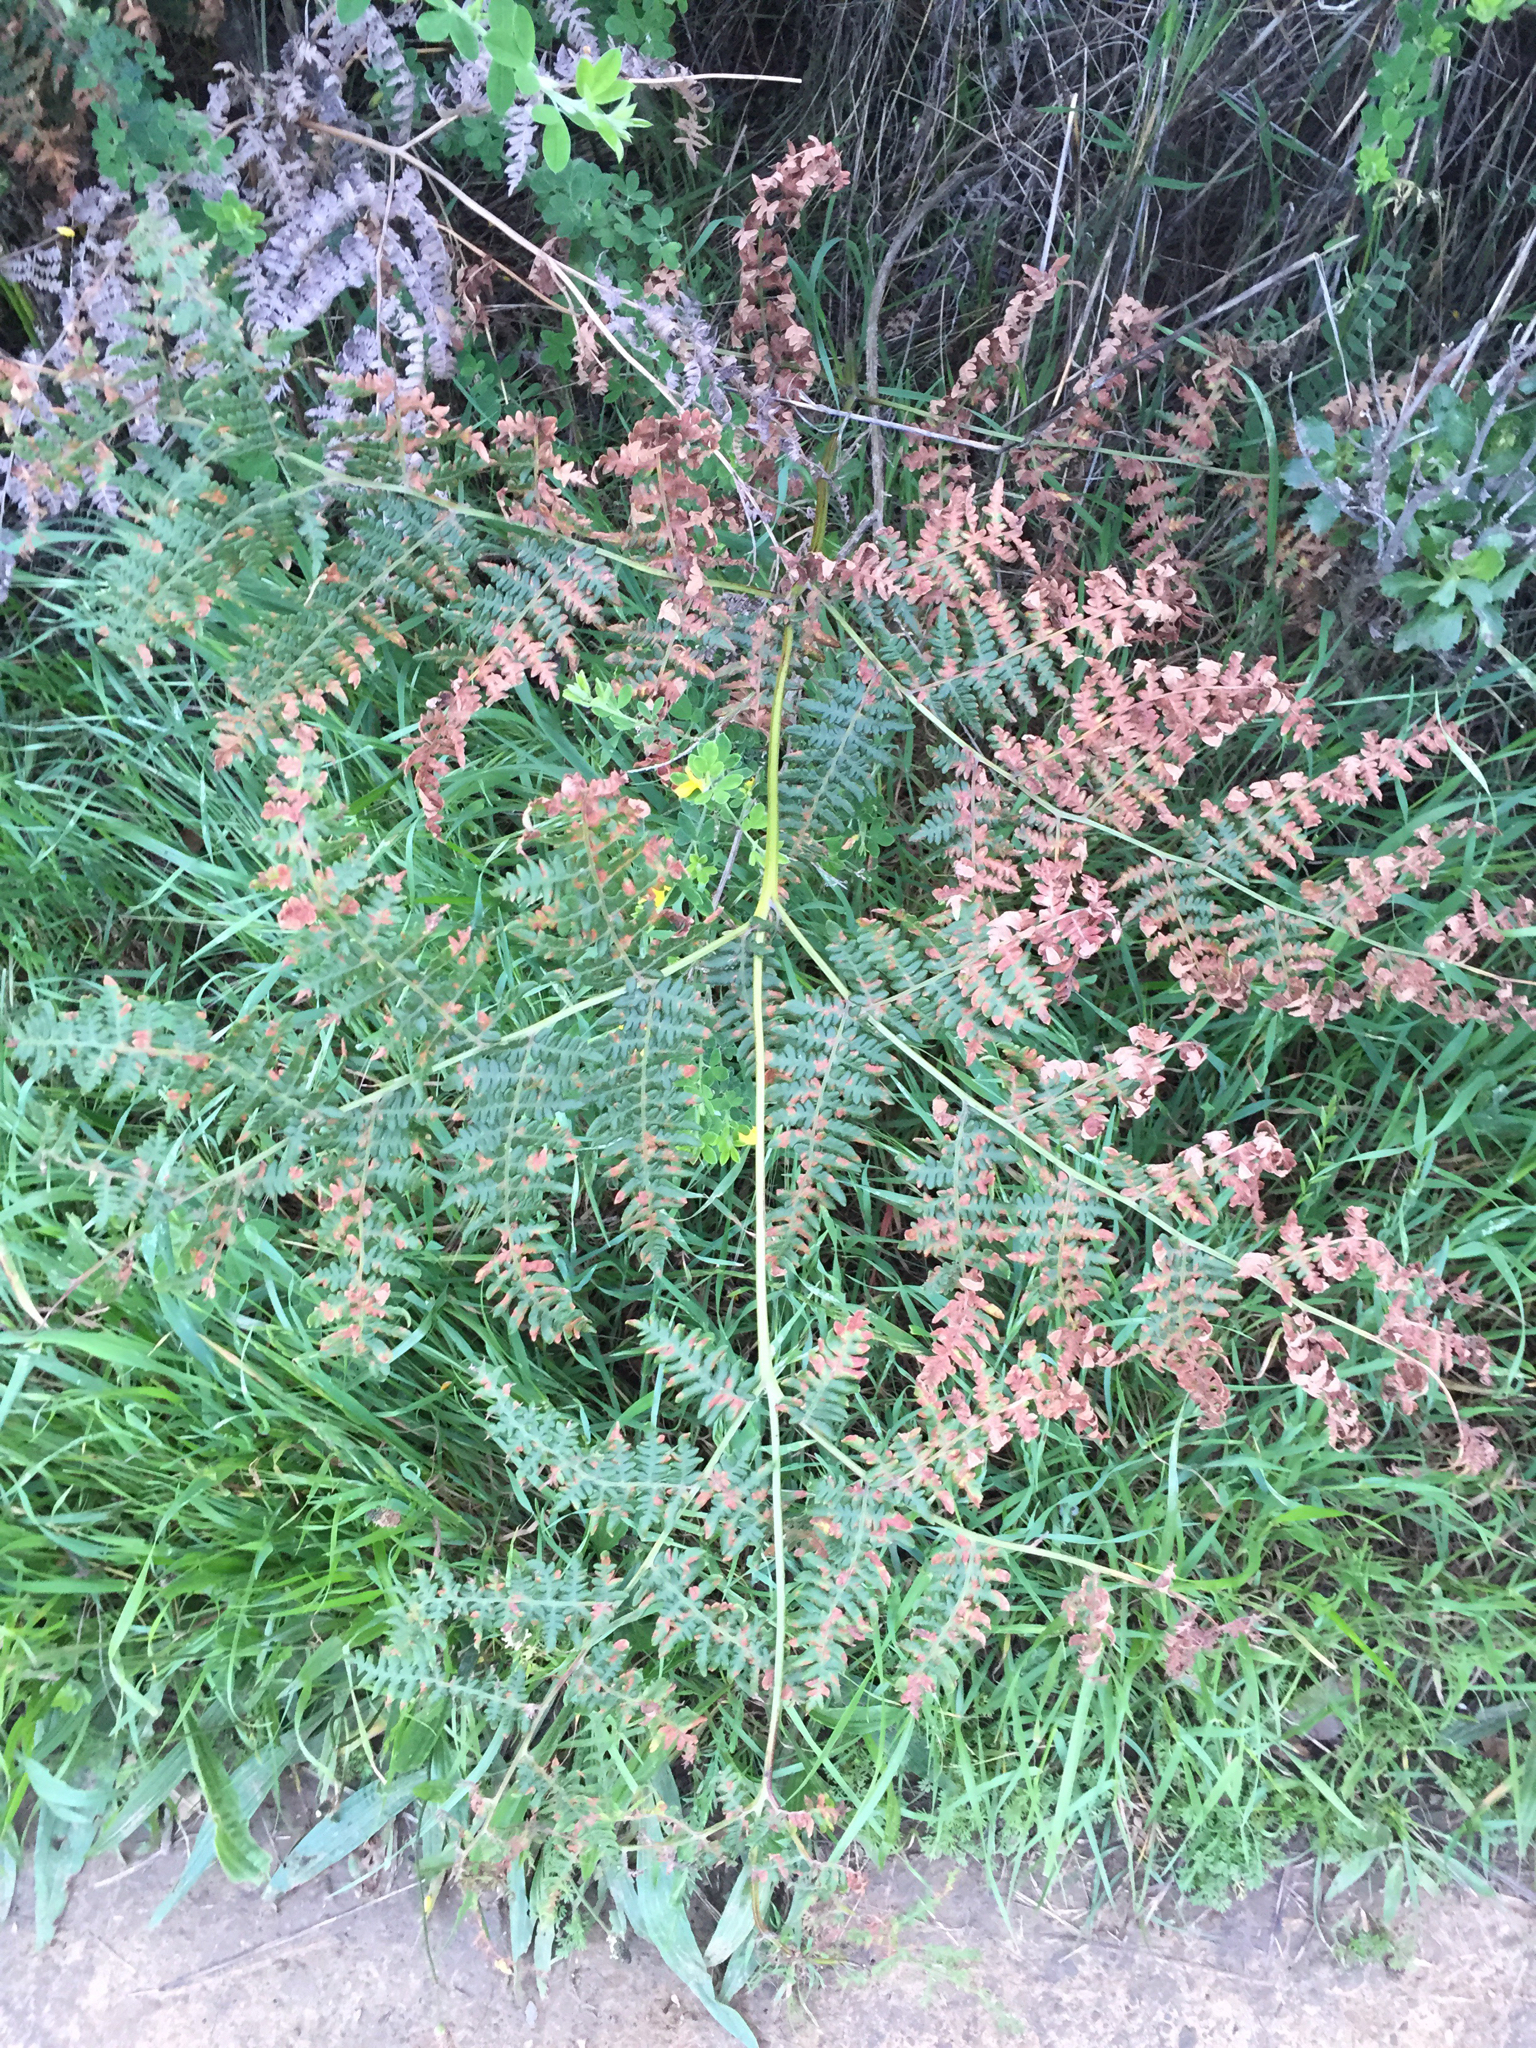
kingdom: Plantae
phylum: Tracheophyta
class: Polypodiopsida
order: Polypodiales
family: Dennstaedtiaceae
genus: Pteridium
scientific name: Pteridium aquilinum
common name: Bracken
